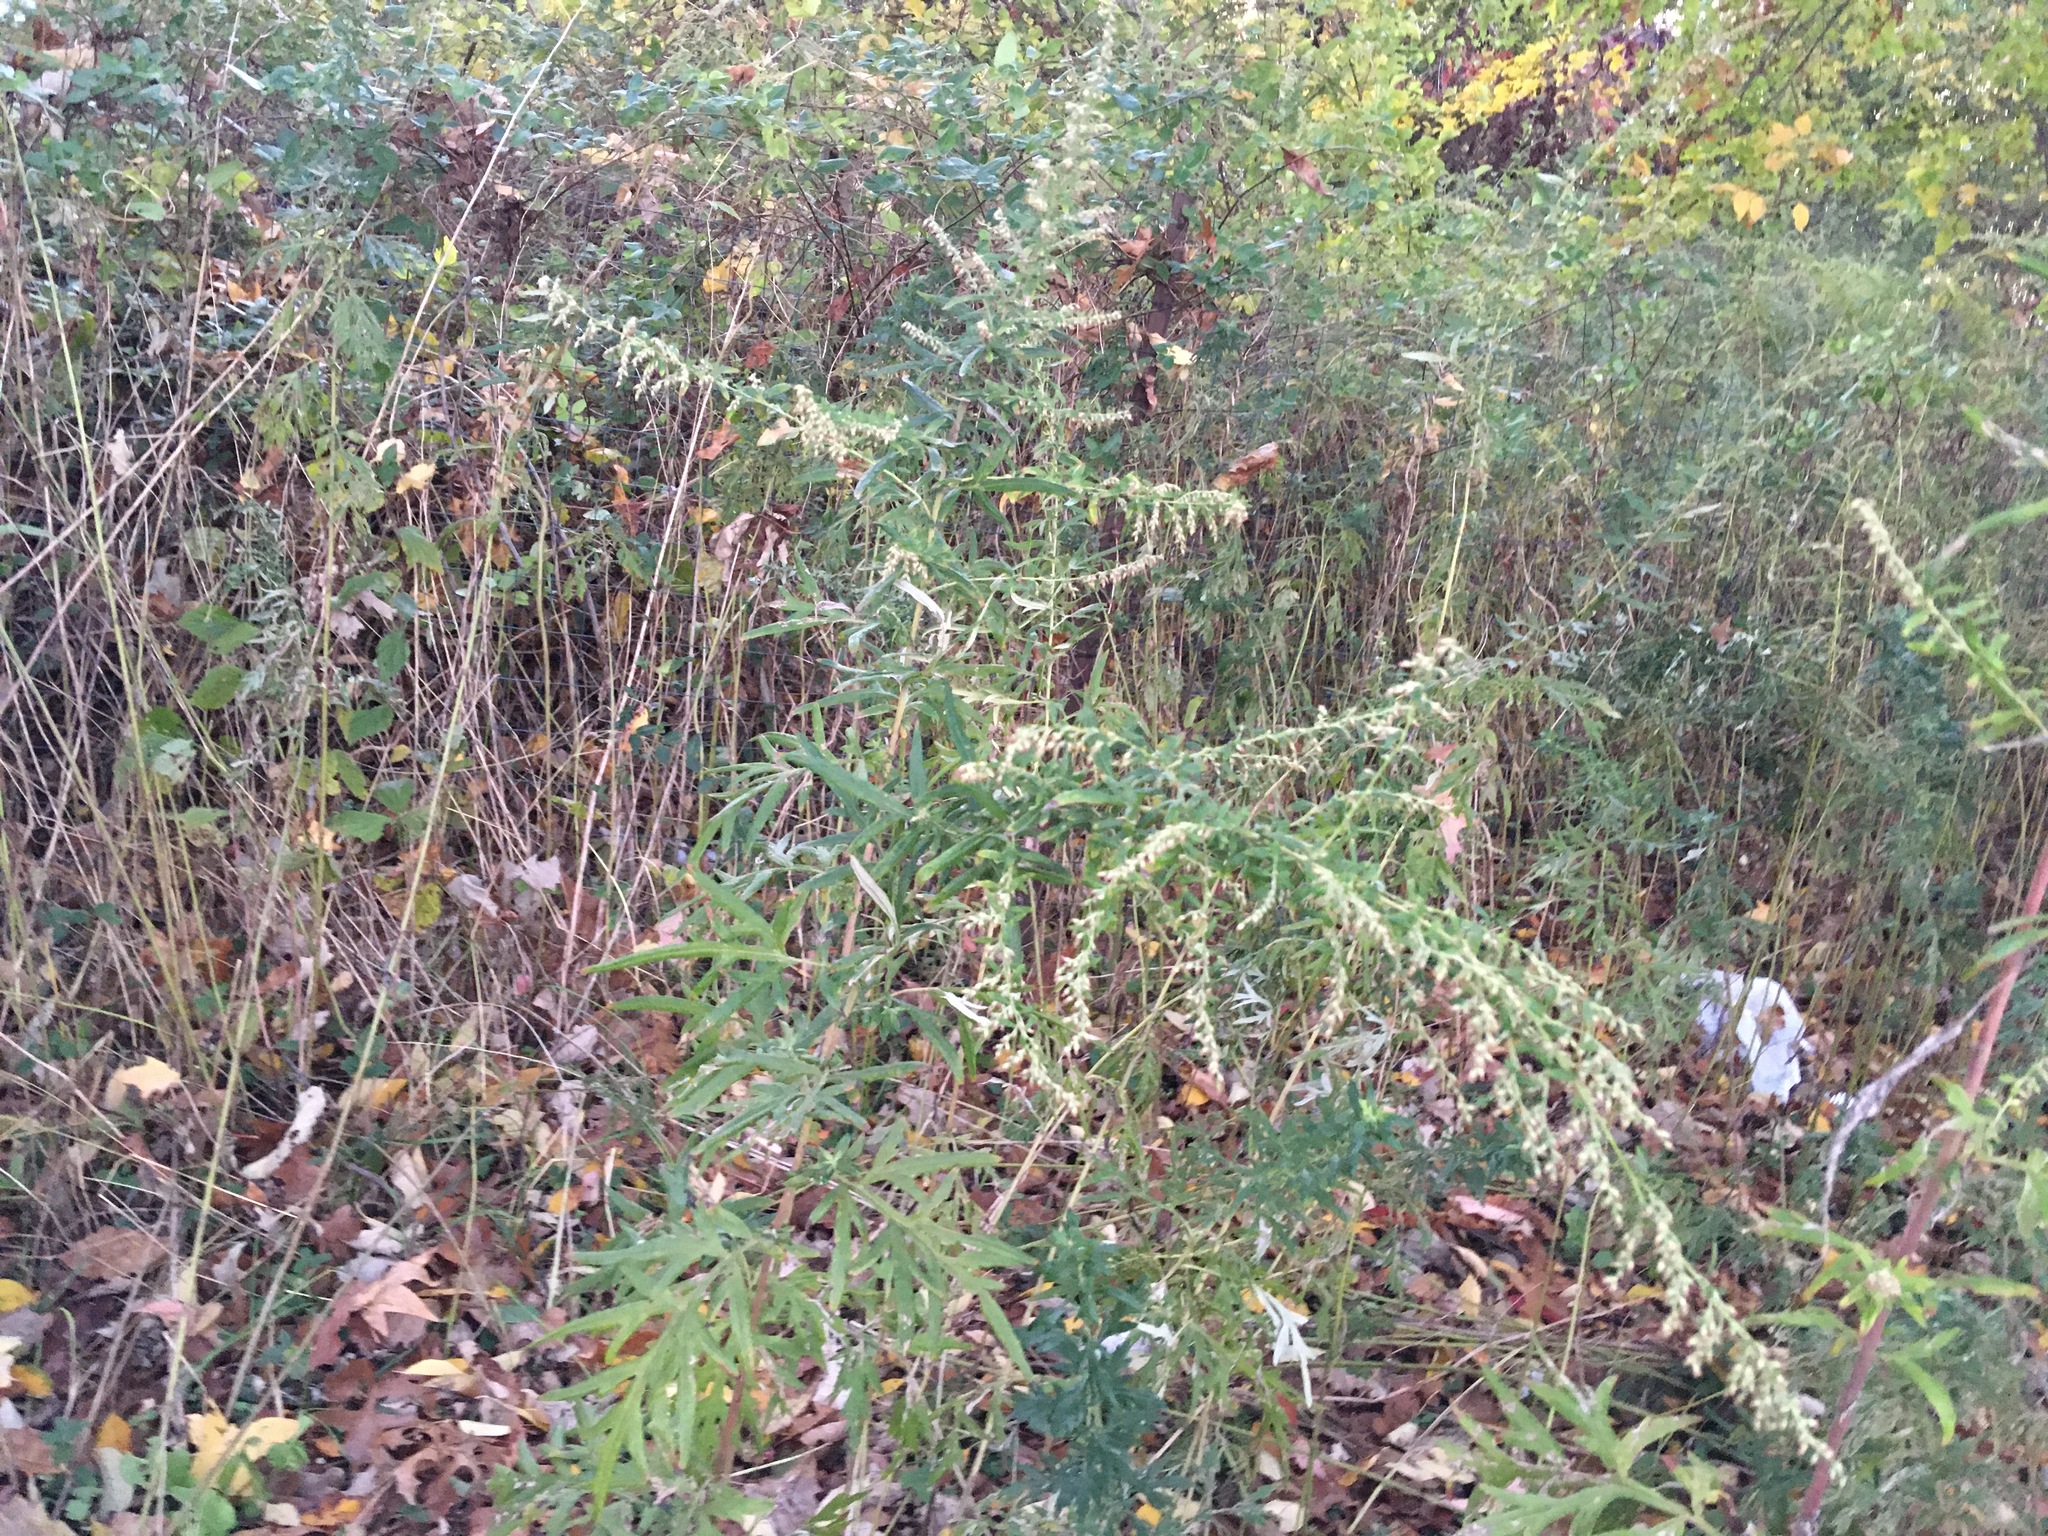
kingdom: Plantae
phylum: Tracheophyta
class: Magnoliopsida
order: Asterales
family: Asteraceae
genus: Artemisia
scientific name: Artemisia vulgaris
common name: Mugwort
